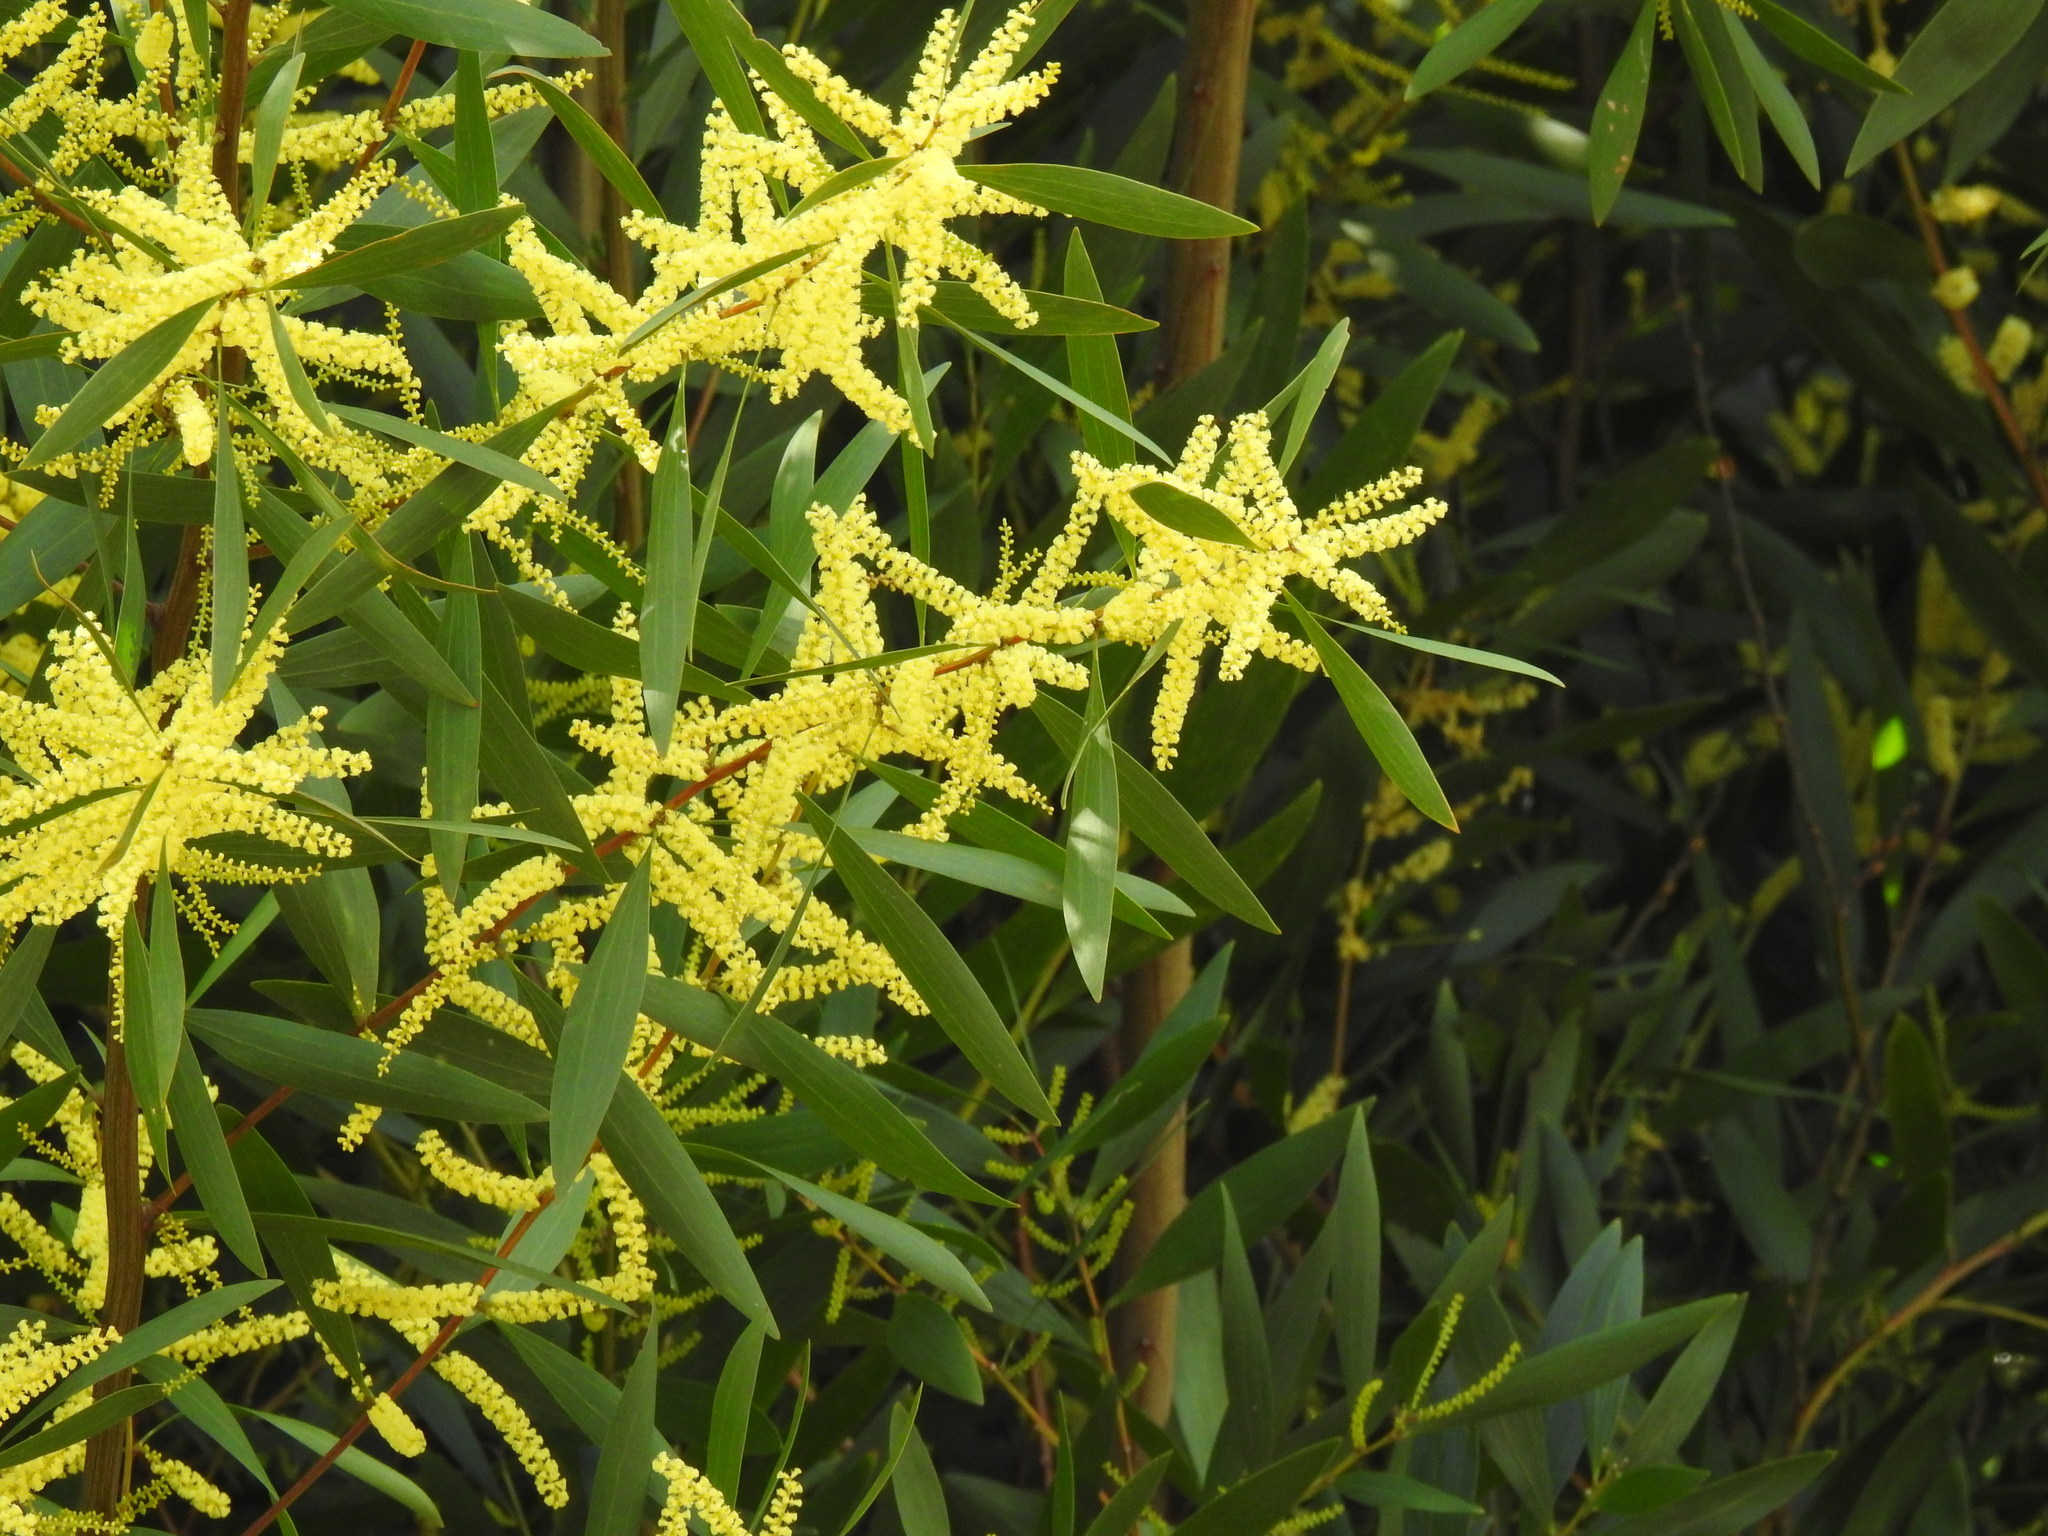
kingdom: Plantae
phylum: Tracheophyta
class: Magnoliopsida
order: Fabales
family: Fabaceae
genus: Acacia
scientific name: Acacia longifolia
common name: Sydney golden wattle
